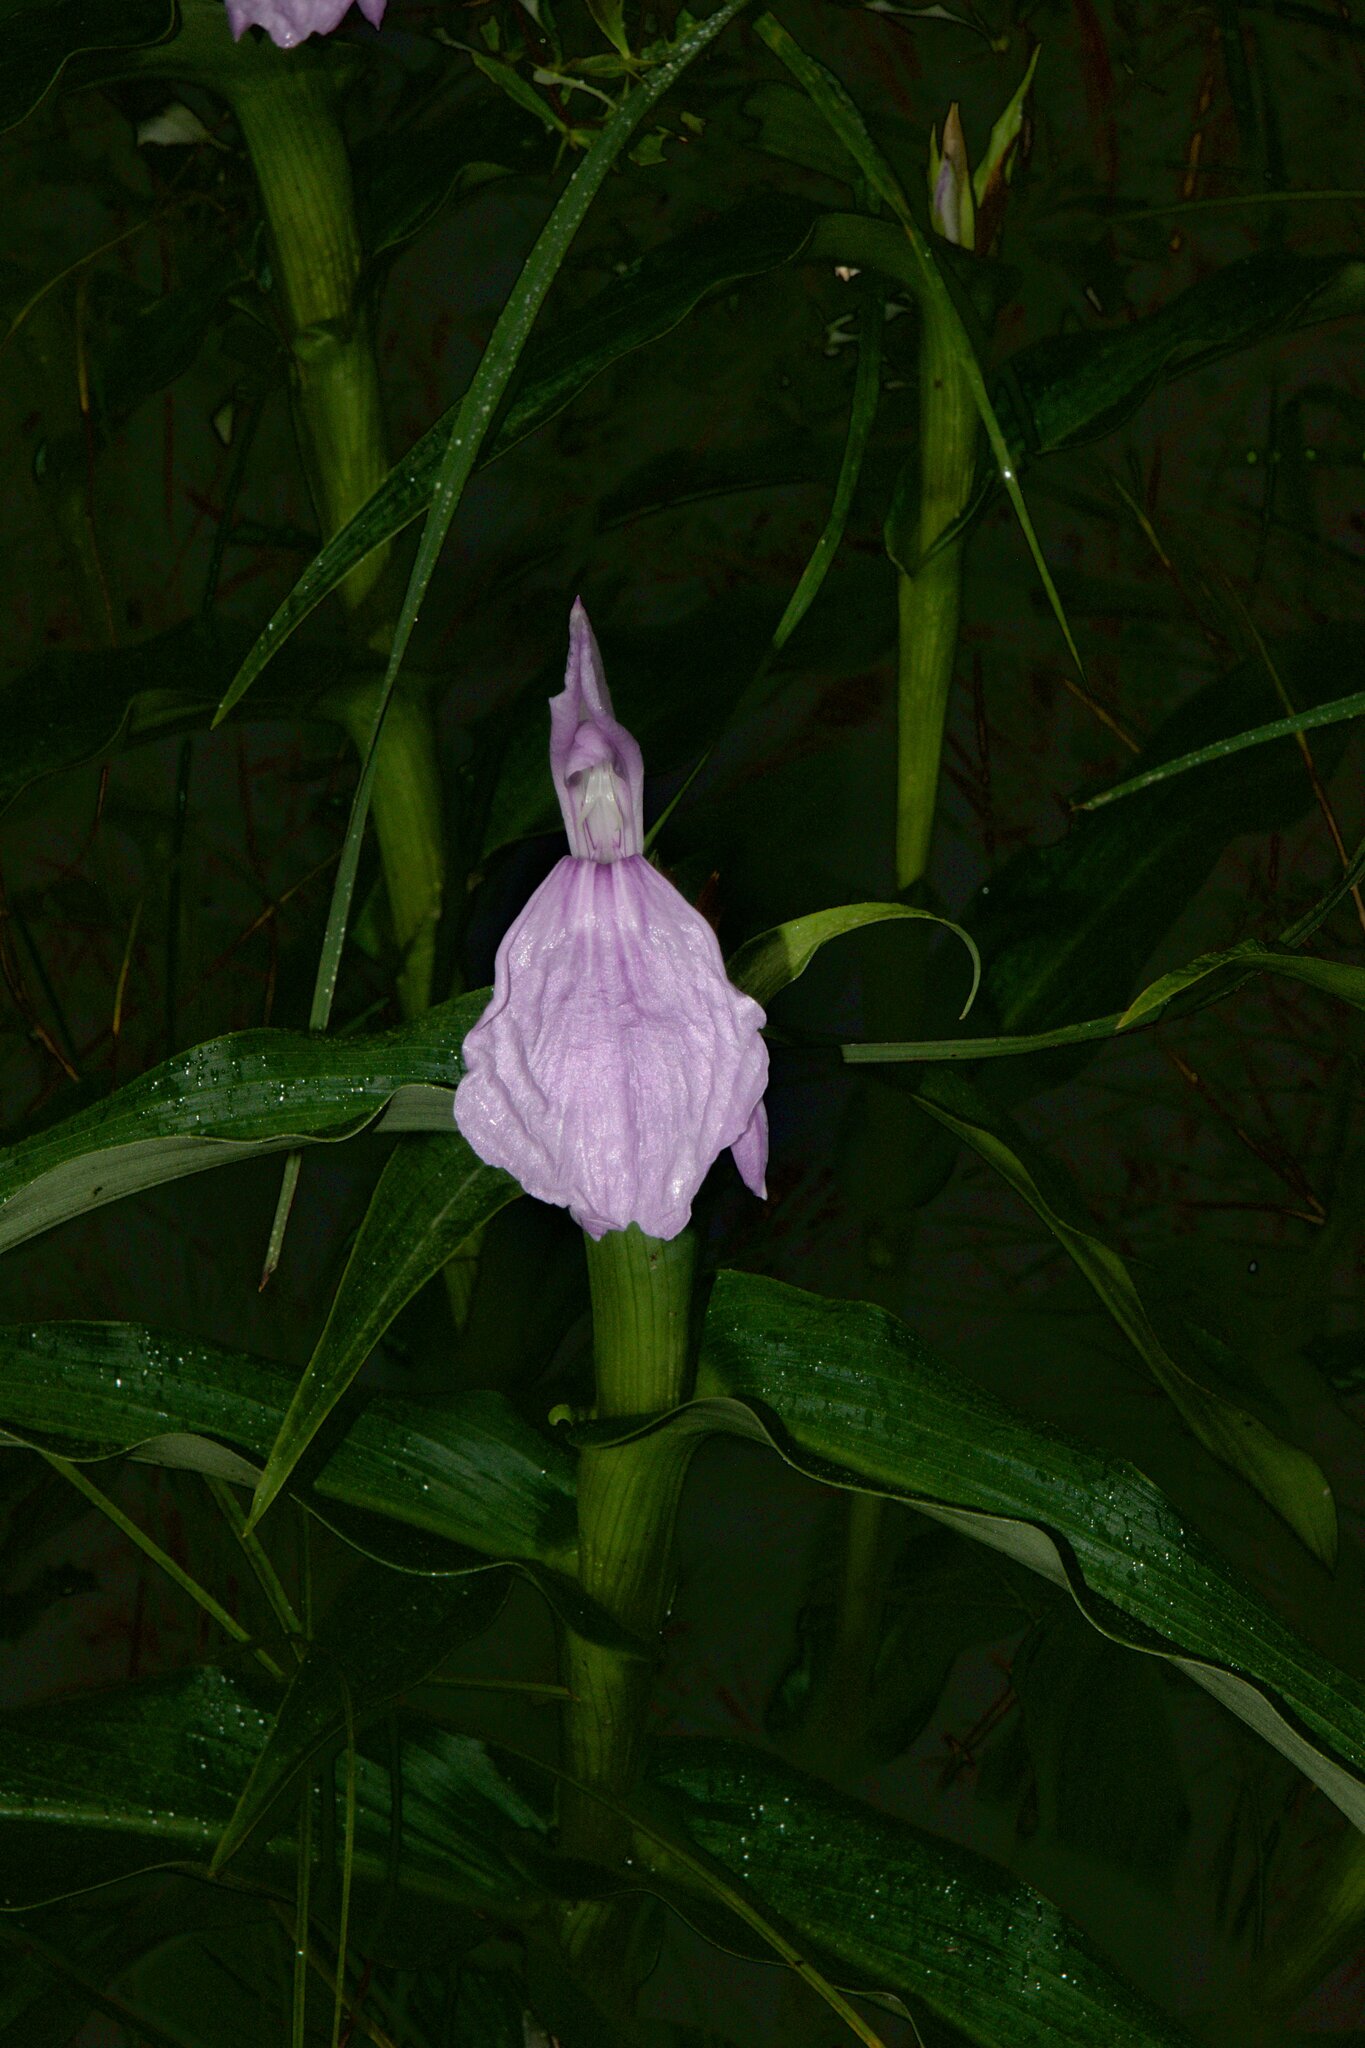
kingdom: Plantae
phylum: Tracheophyta
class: Liliopsida
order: Zingiberales
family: Zingiberaceae
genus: Roscoea
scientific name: Roscoea purpurea
